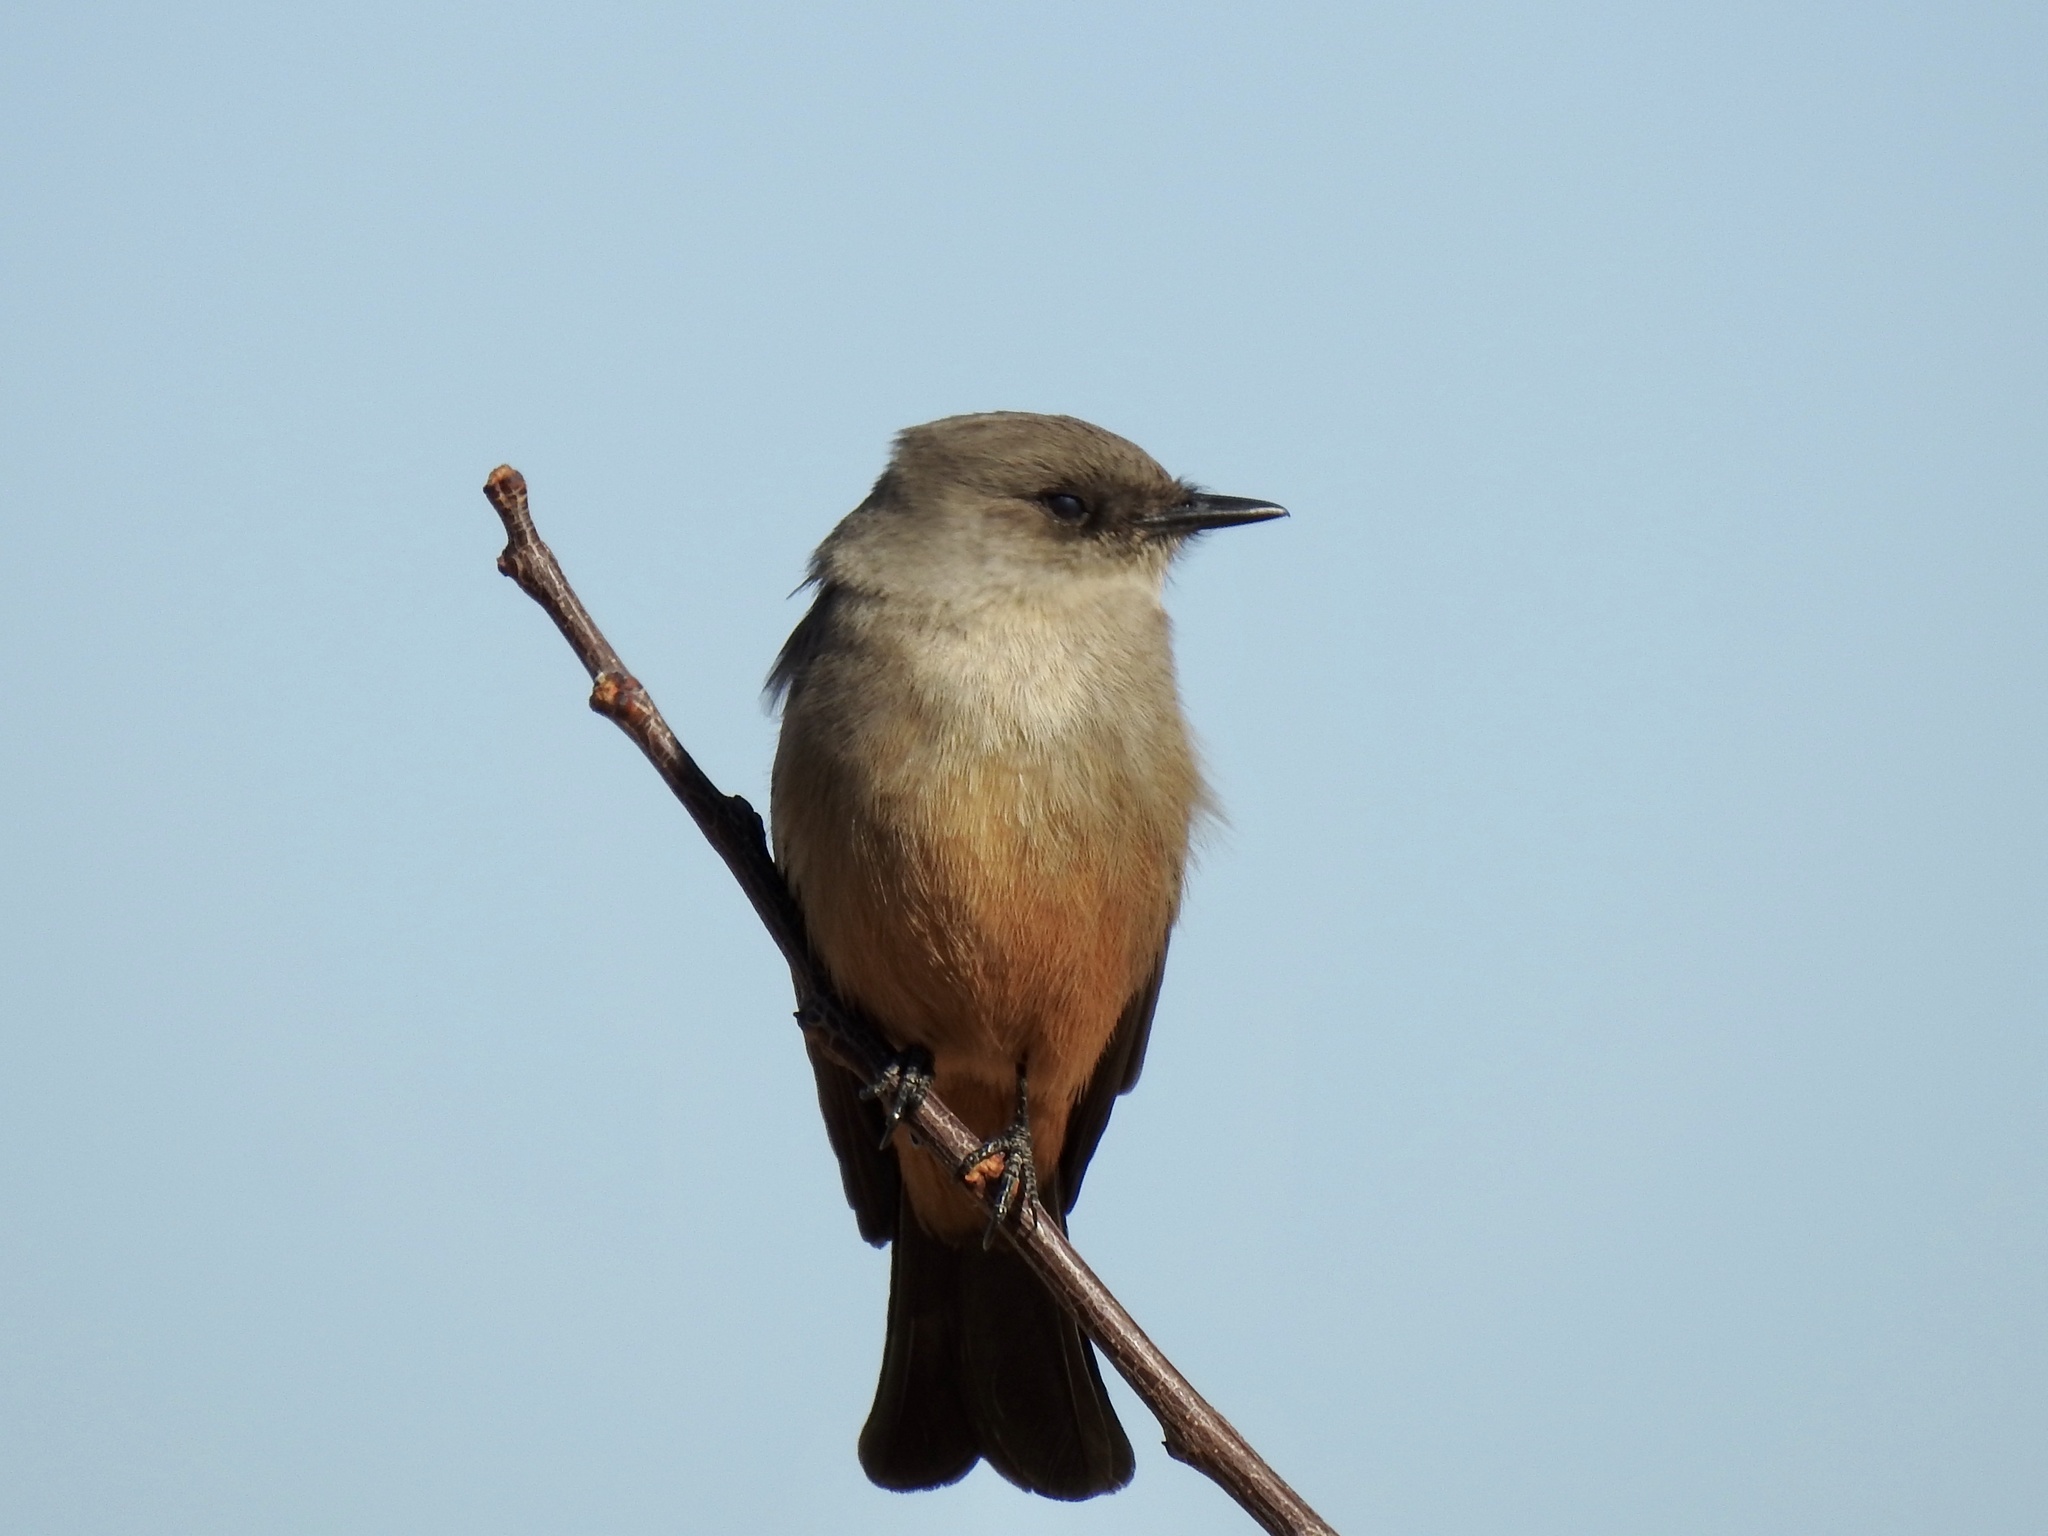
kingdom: Animalia
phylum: Chordata
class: Aves
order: Passeriformes
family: Tyrannidae
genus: Sayornis
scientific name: Sayornis saya
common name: Say's phoebe
